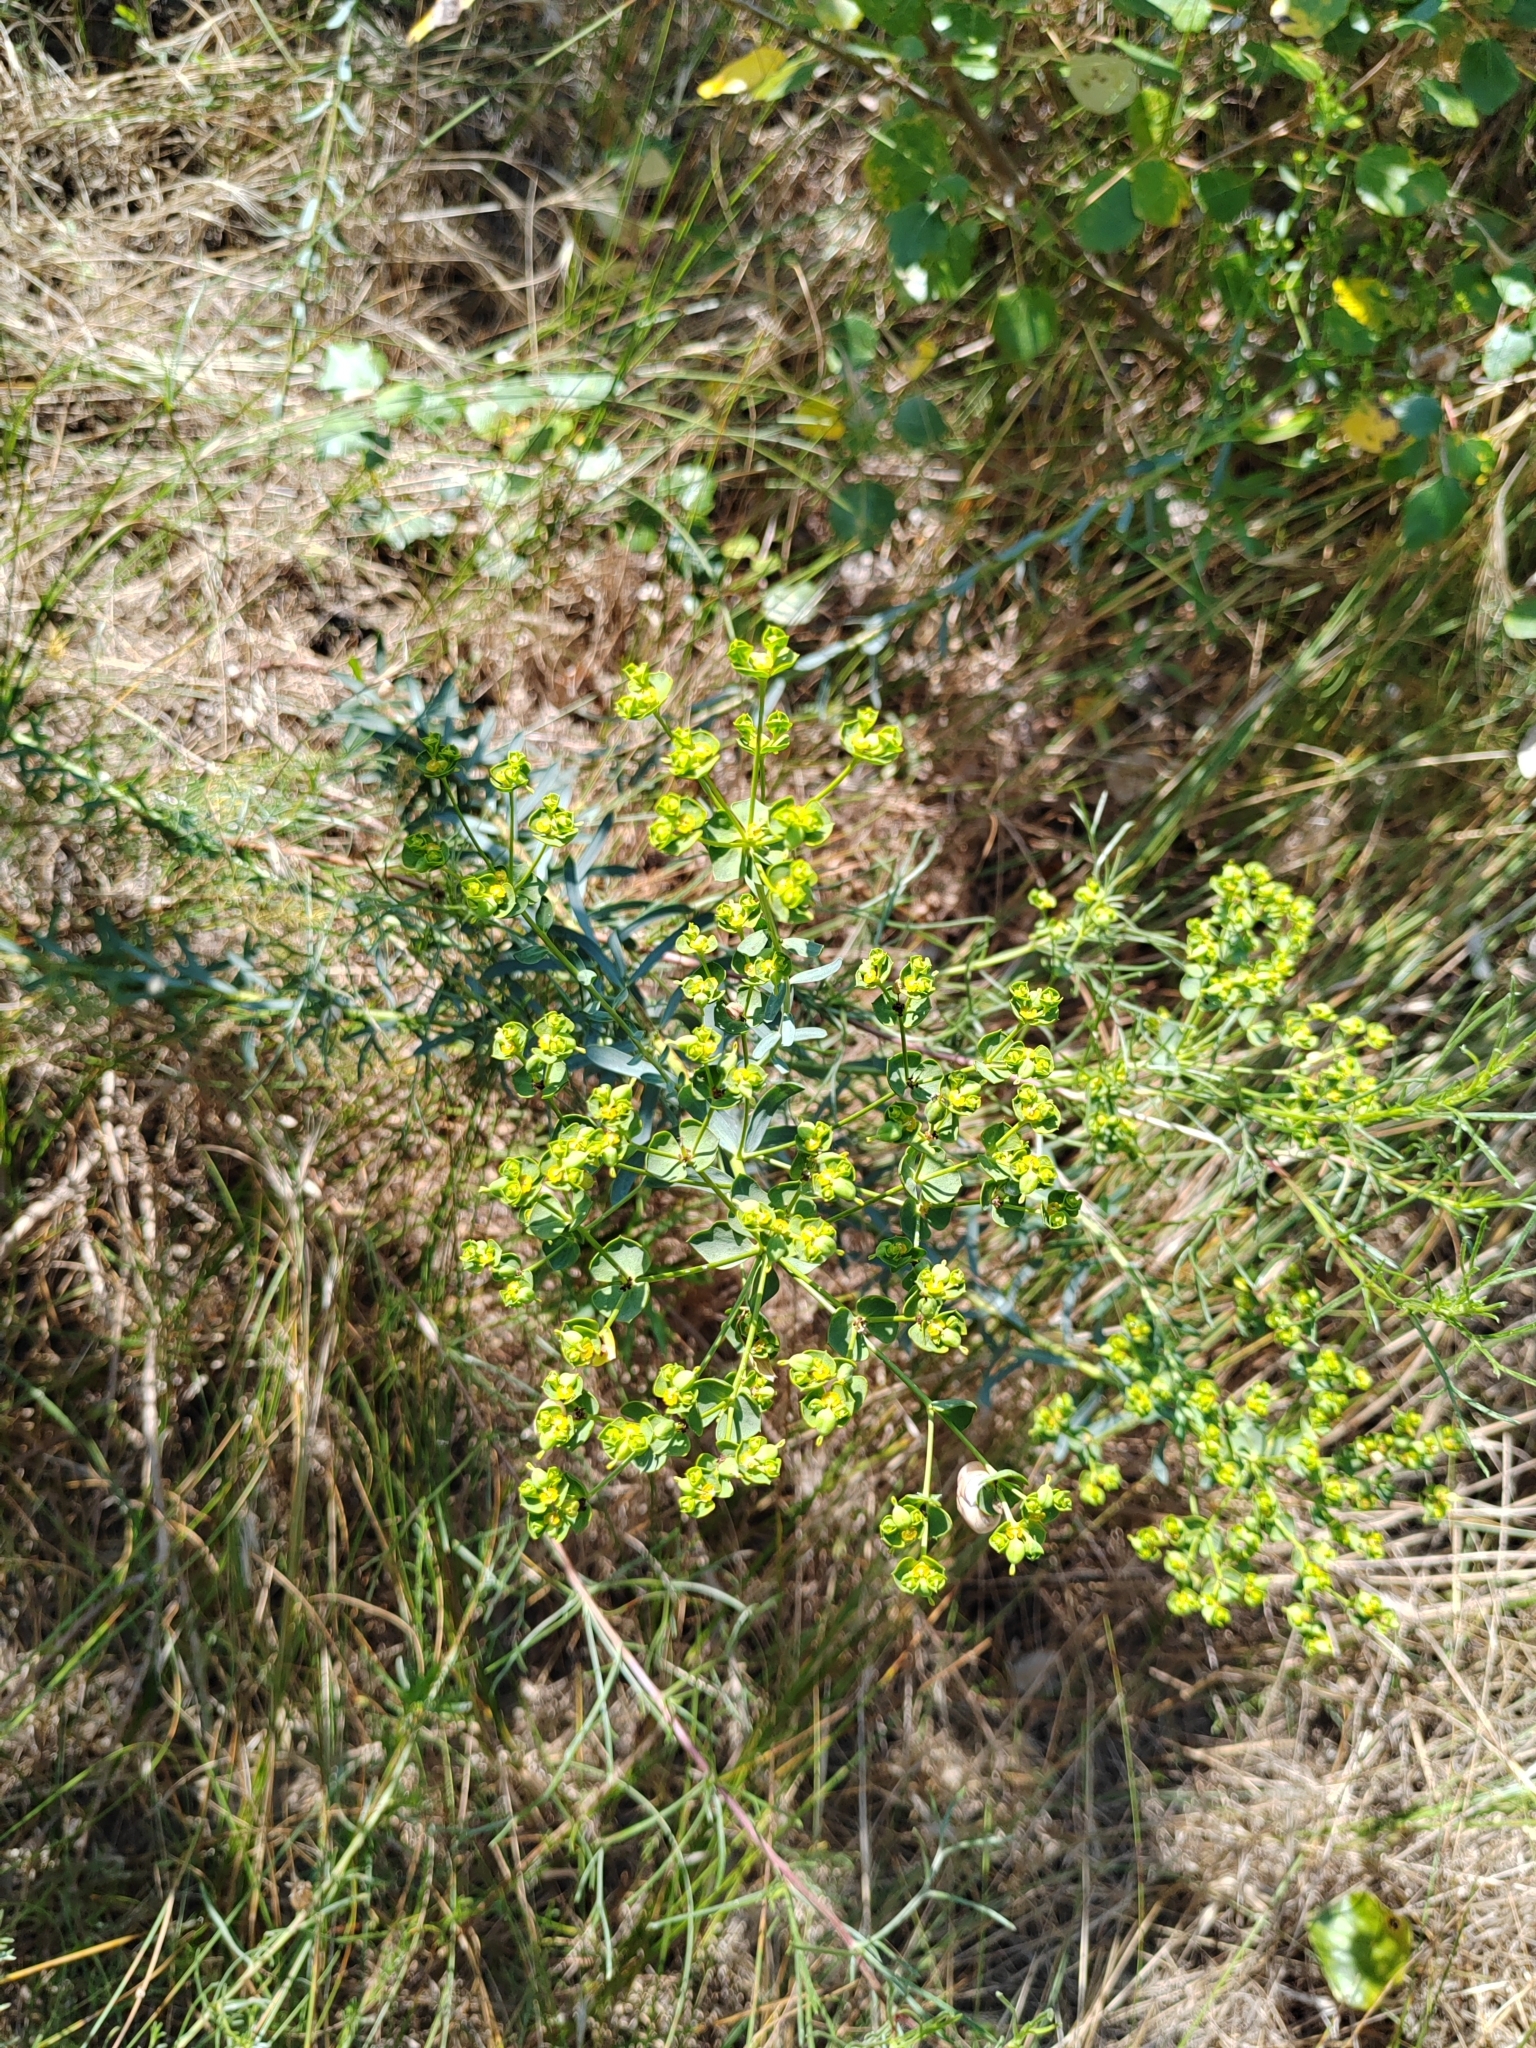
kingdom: Plantae
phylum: Tracheophyta
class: Magnoliopsida
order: Malpighiales
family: Euphorbiaceae
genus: Euphorbia
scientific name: Euphorbia seguieriana
